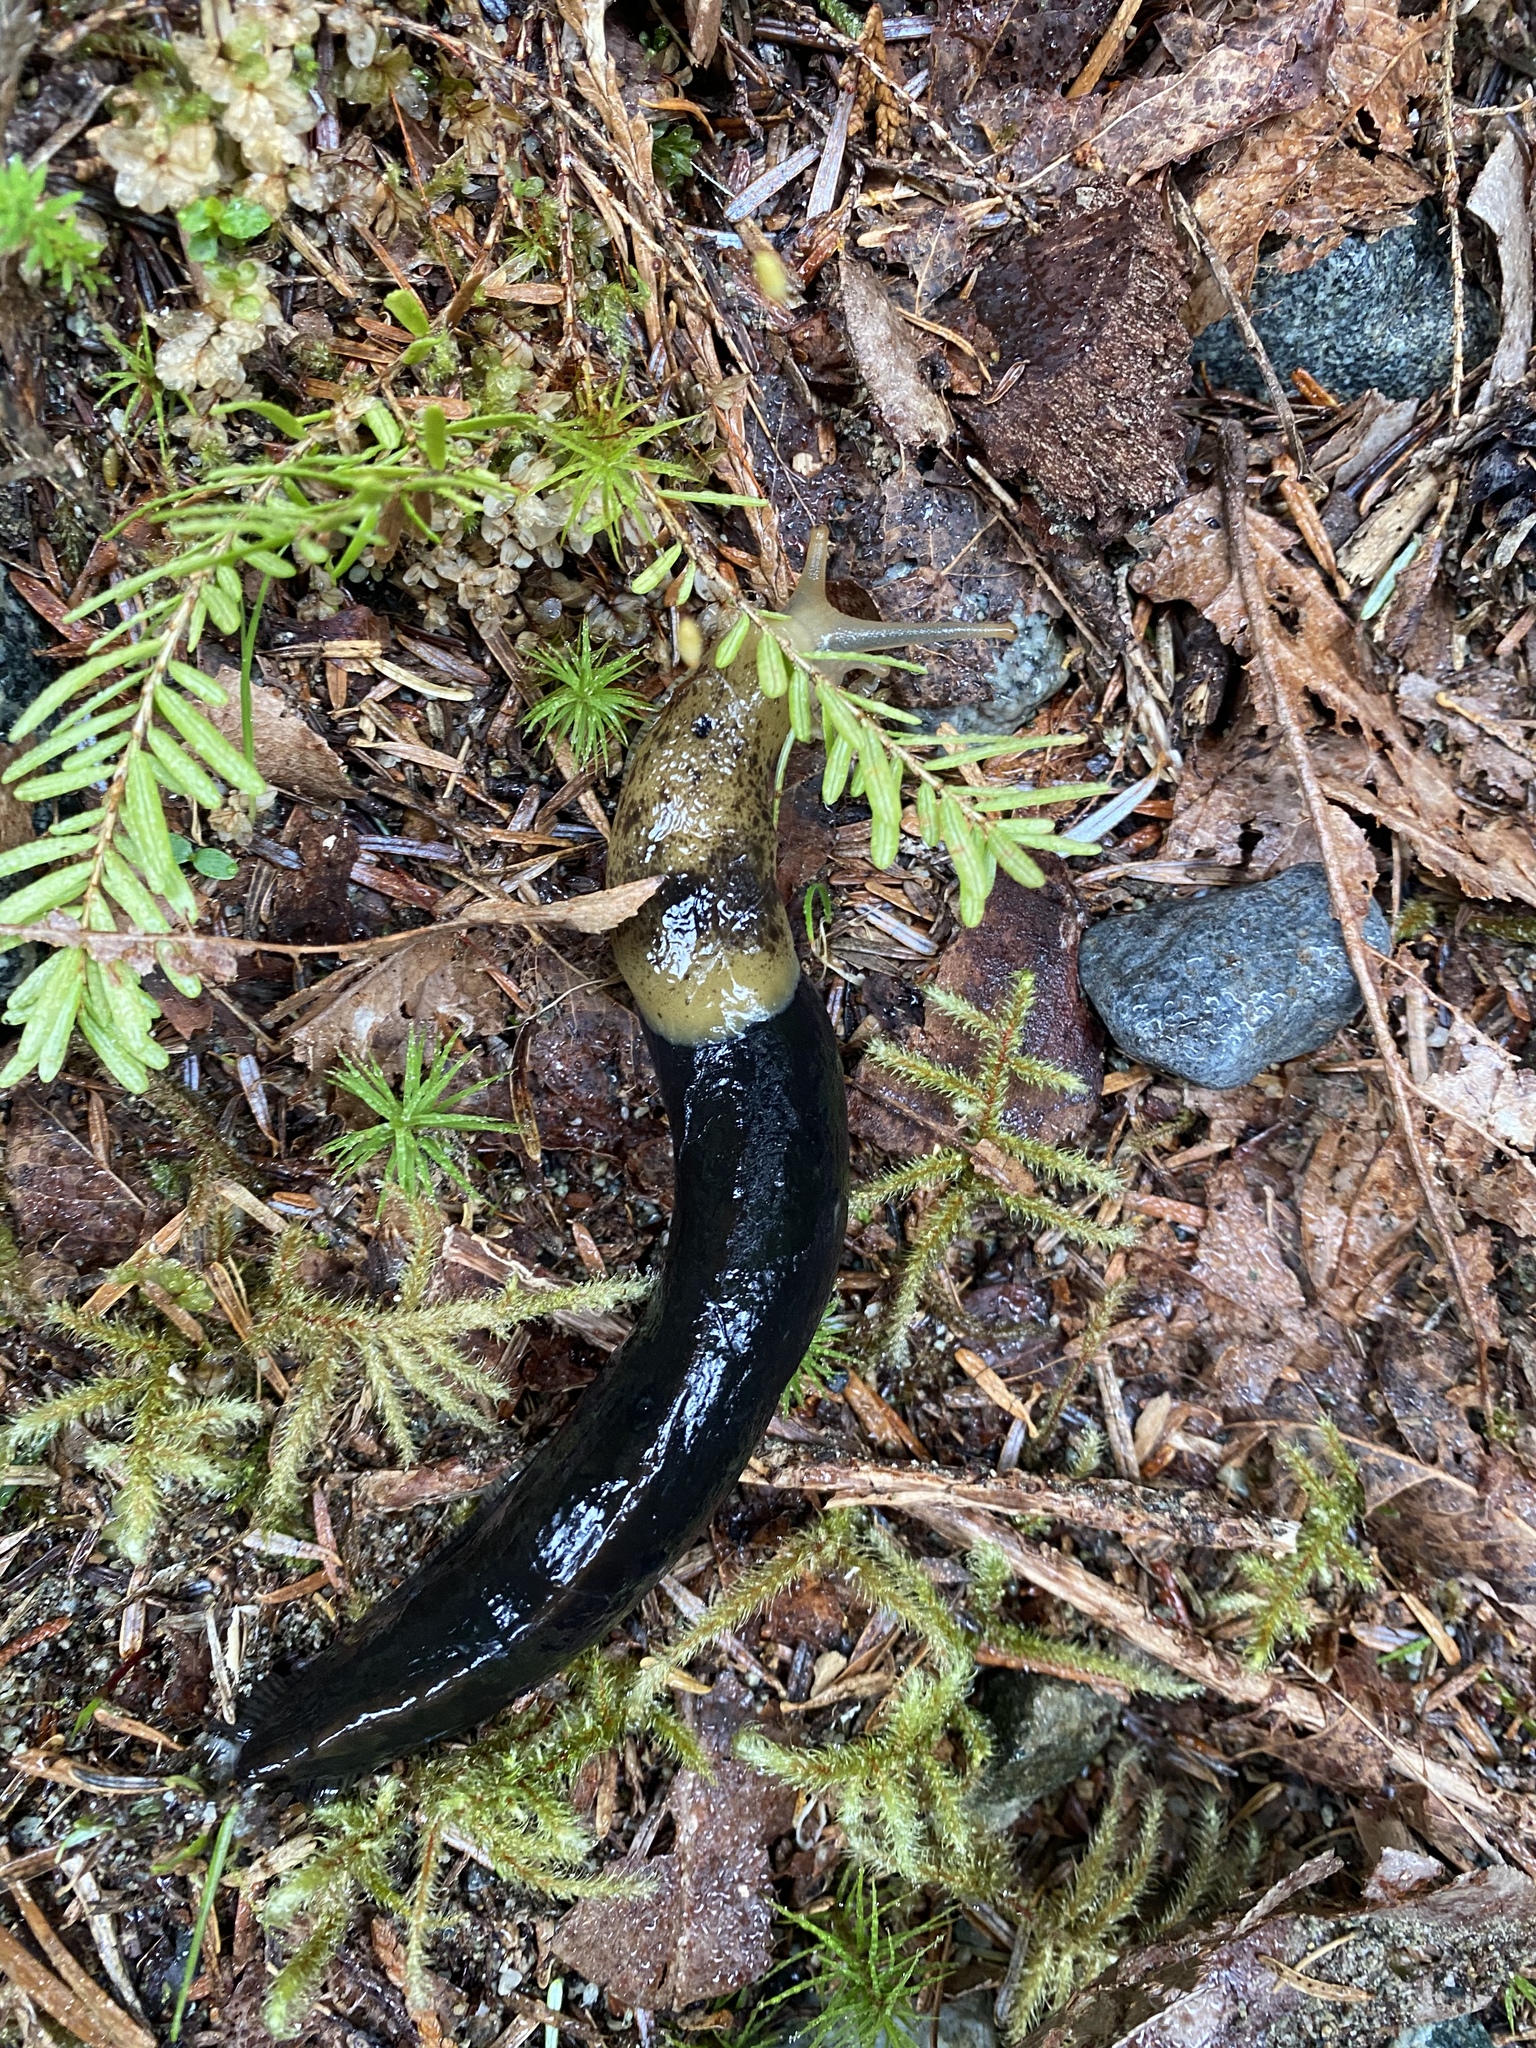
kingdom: Animalia
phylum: Mollusca
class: Gastropoda
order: Stylommatophora
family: Ariolimacidae
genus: Ariolimax
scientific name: Ariolimax columbianus
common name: Pacific banana slug
